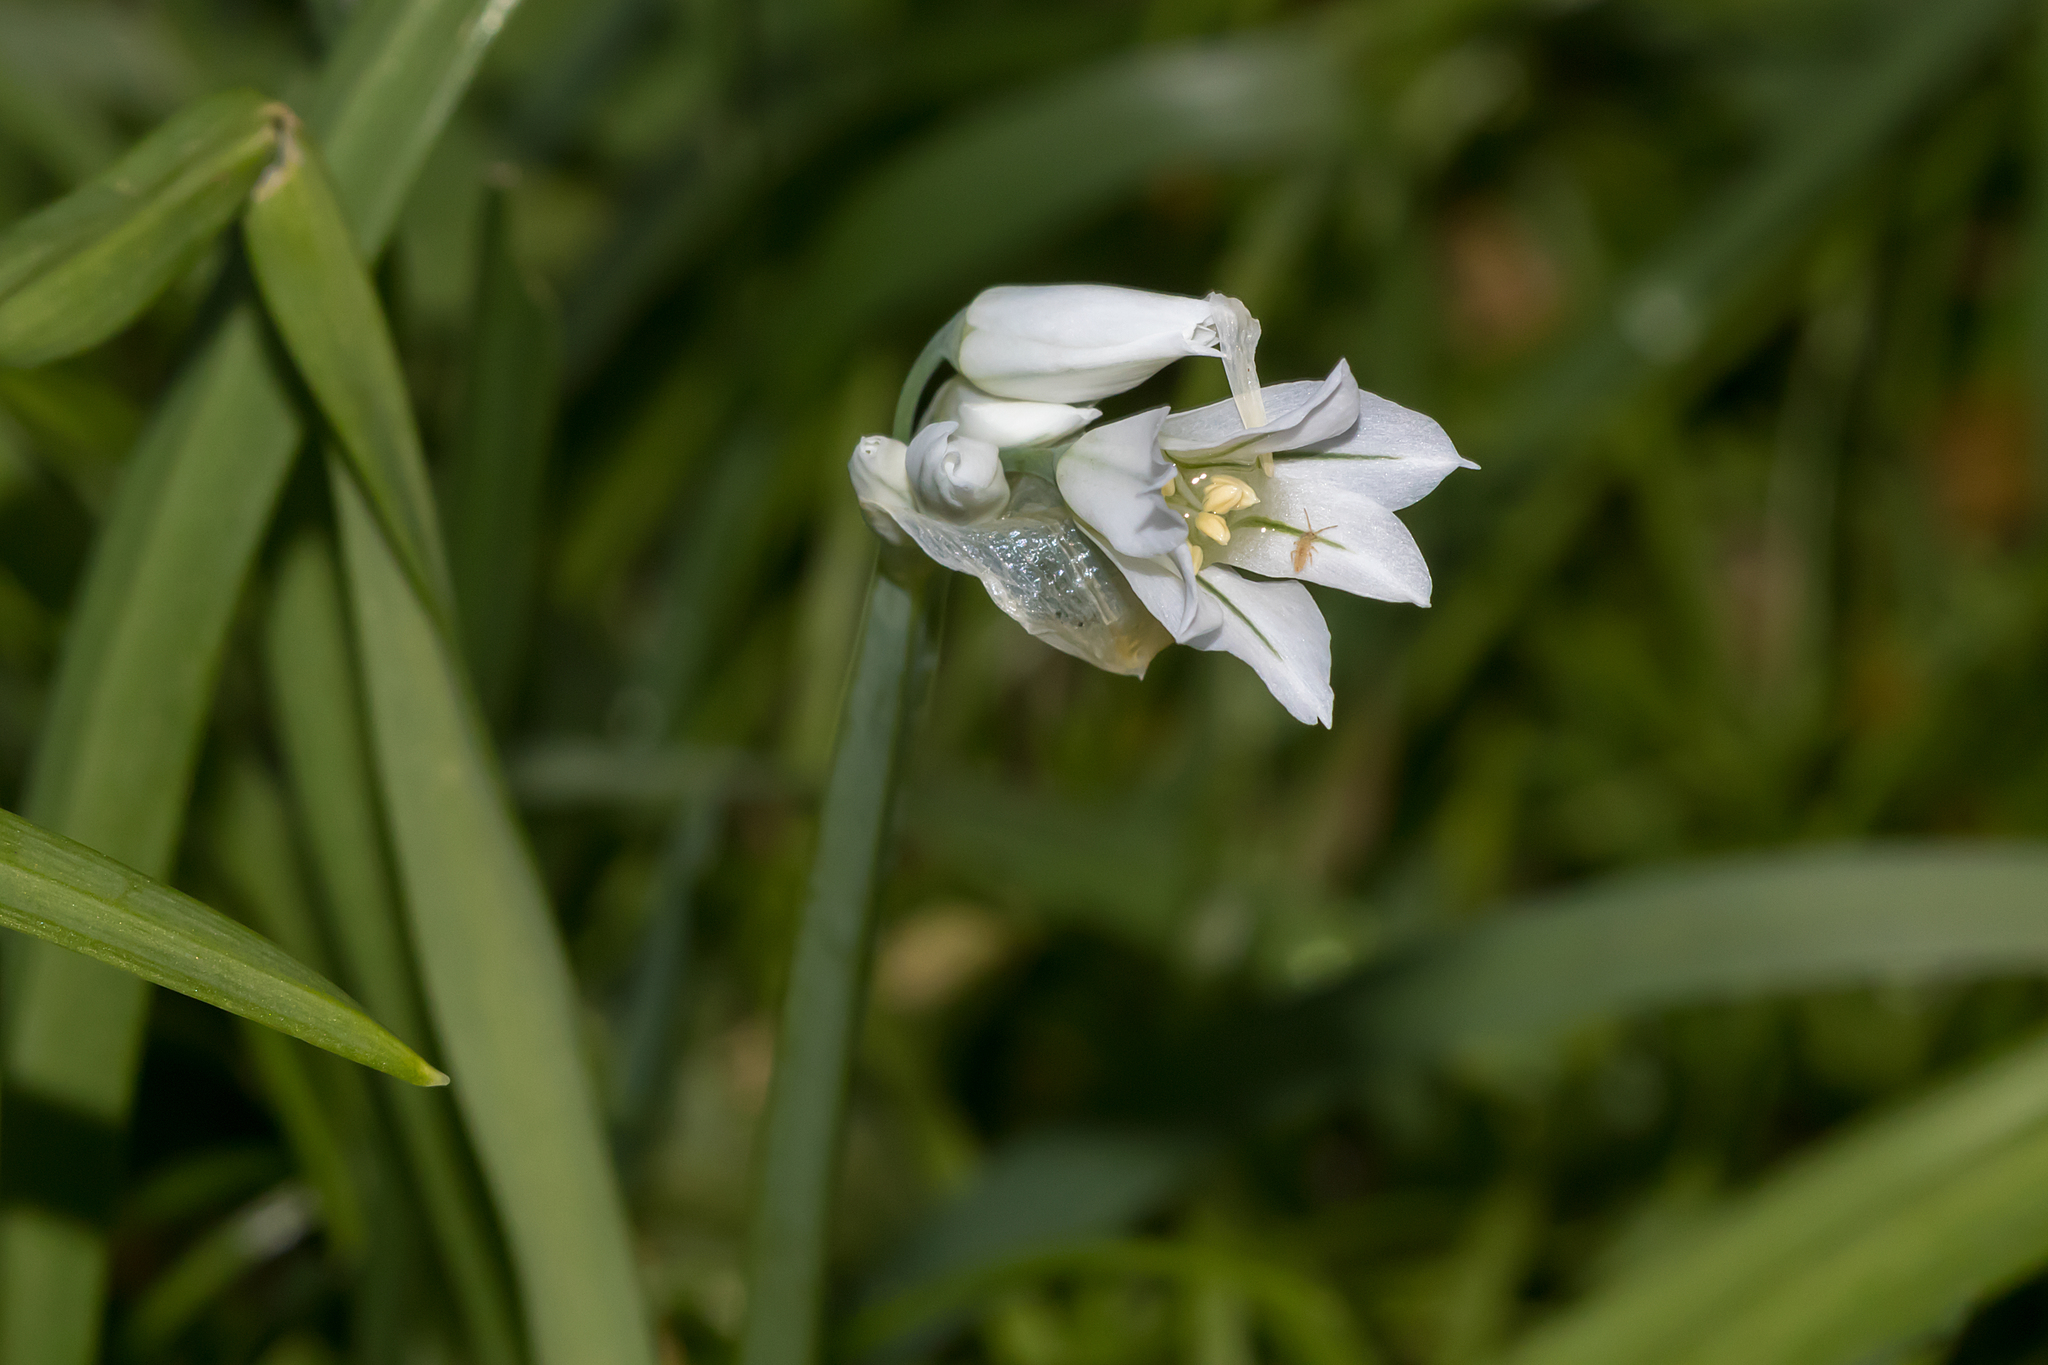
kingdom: Plantae
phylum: Tracheophyta
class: Liliopsida
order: Asparagales
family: Amaryllidaceae
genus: Allium
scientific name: Allium triquetrum
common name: Three-cornered garlic
